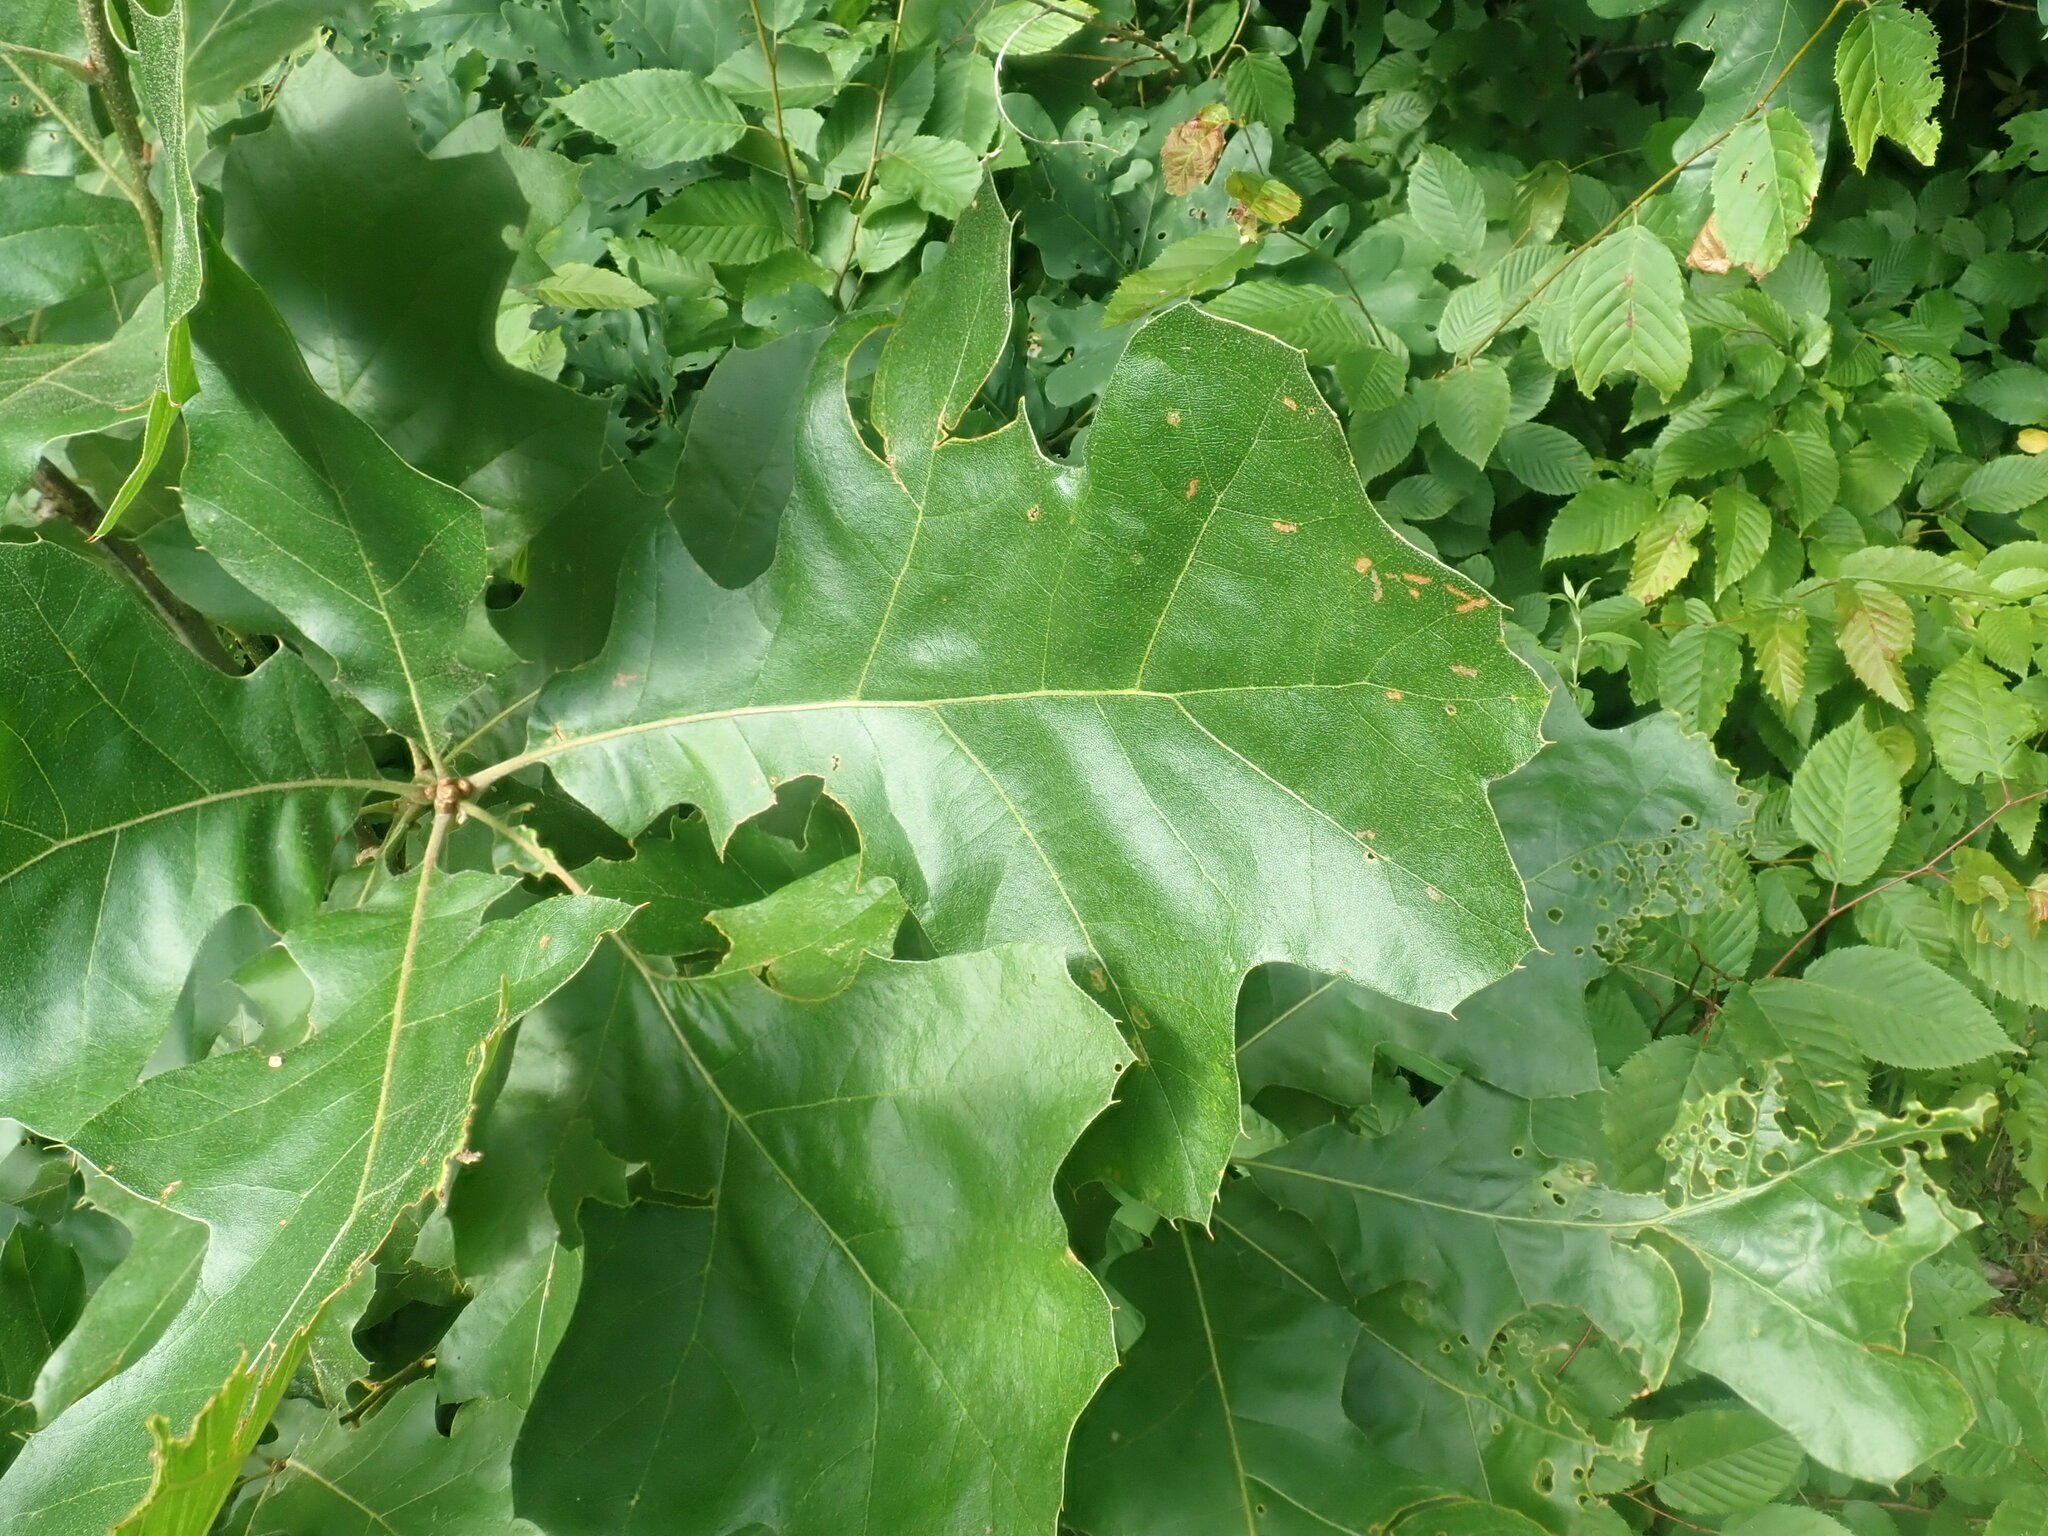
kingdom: Plantae
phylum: Tracheophyta
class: Magnoliopsida
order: Fagales
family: Fagaceae
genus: Quercus
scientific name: Quercus velutina
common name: Black oak
